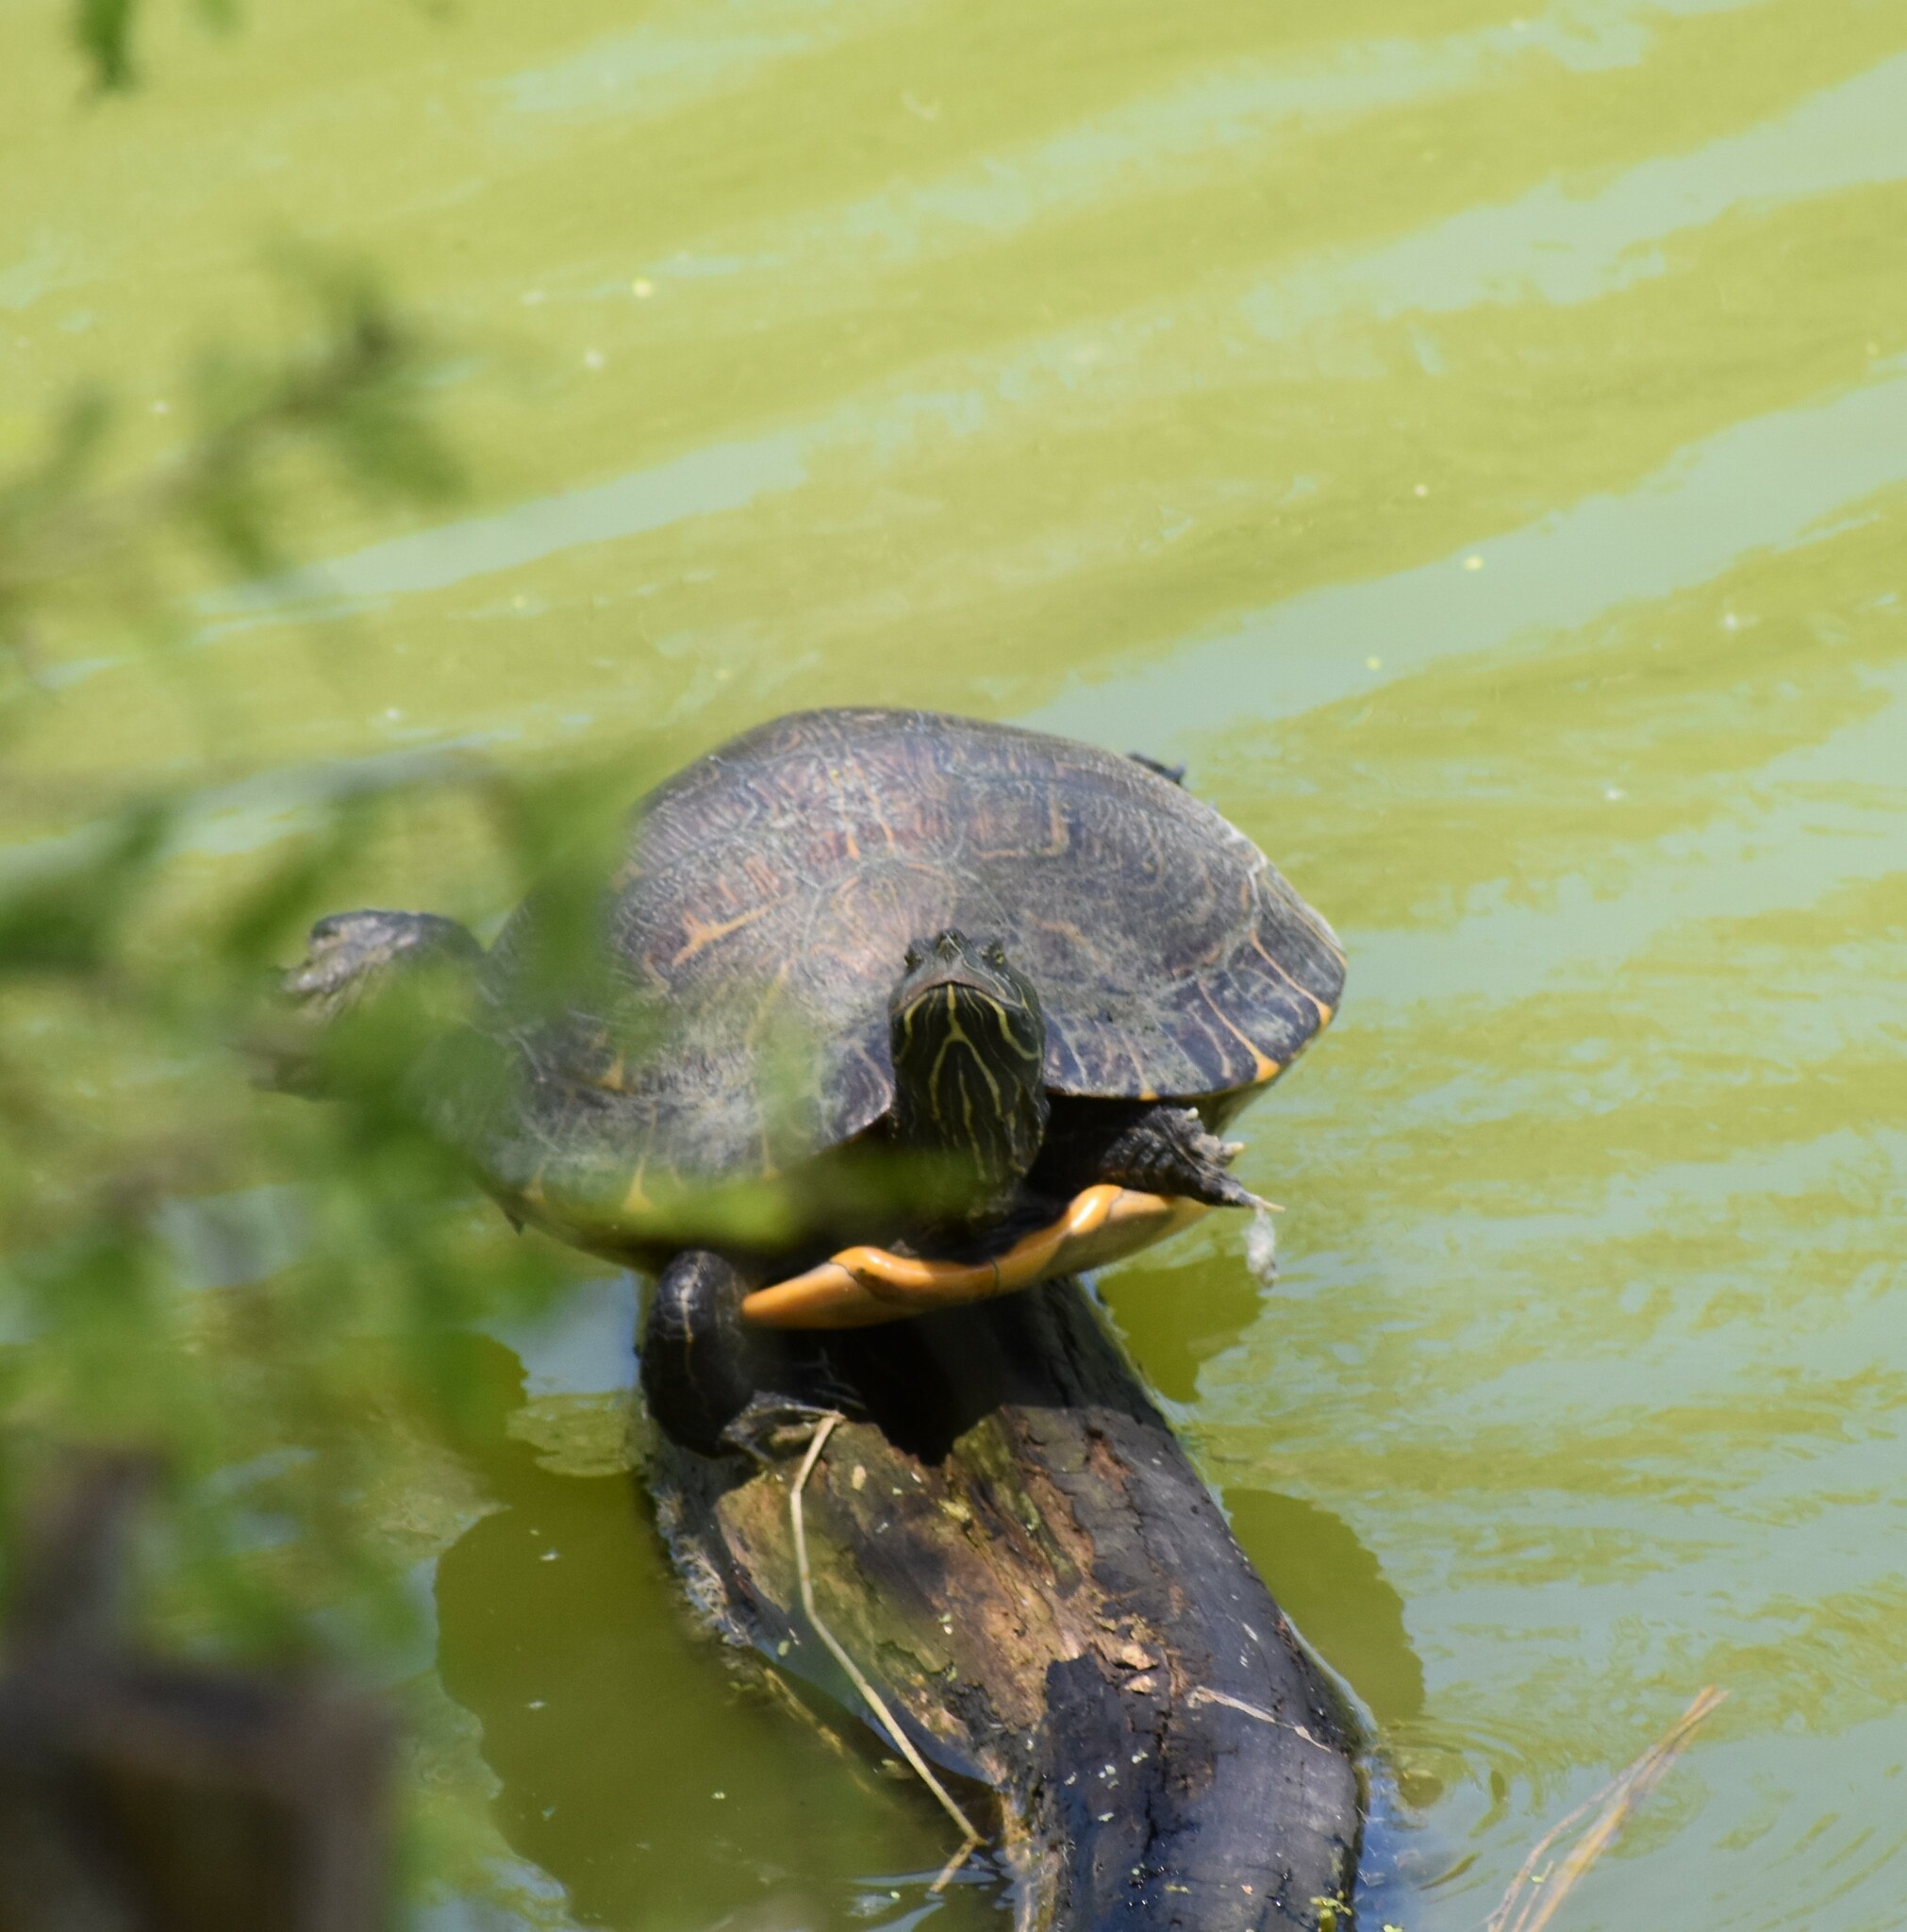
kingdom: Animalia
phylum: Chordata
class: Testudines
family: Emydidae
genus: Pseudemys
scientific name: Pseudemys concinna
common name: Eastern river cooter
